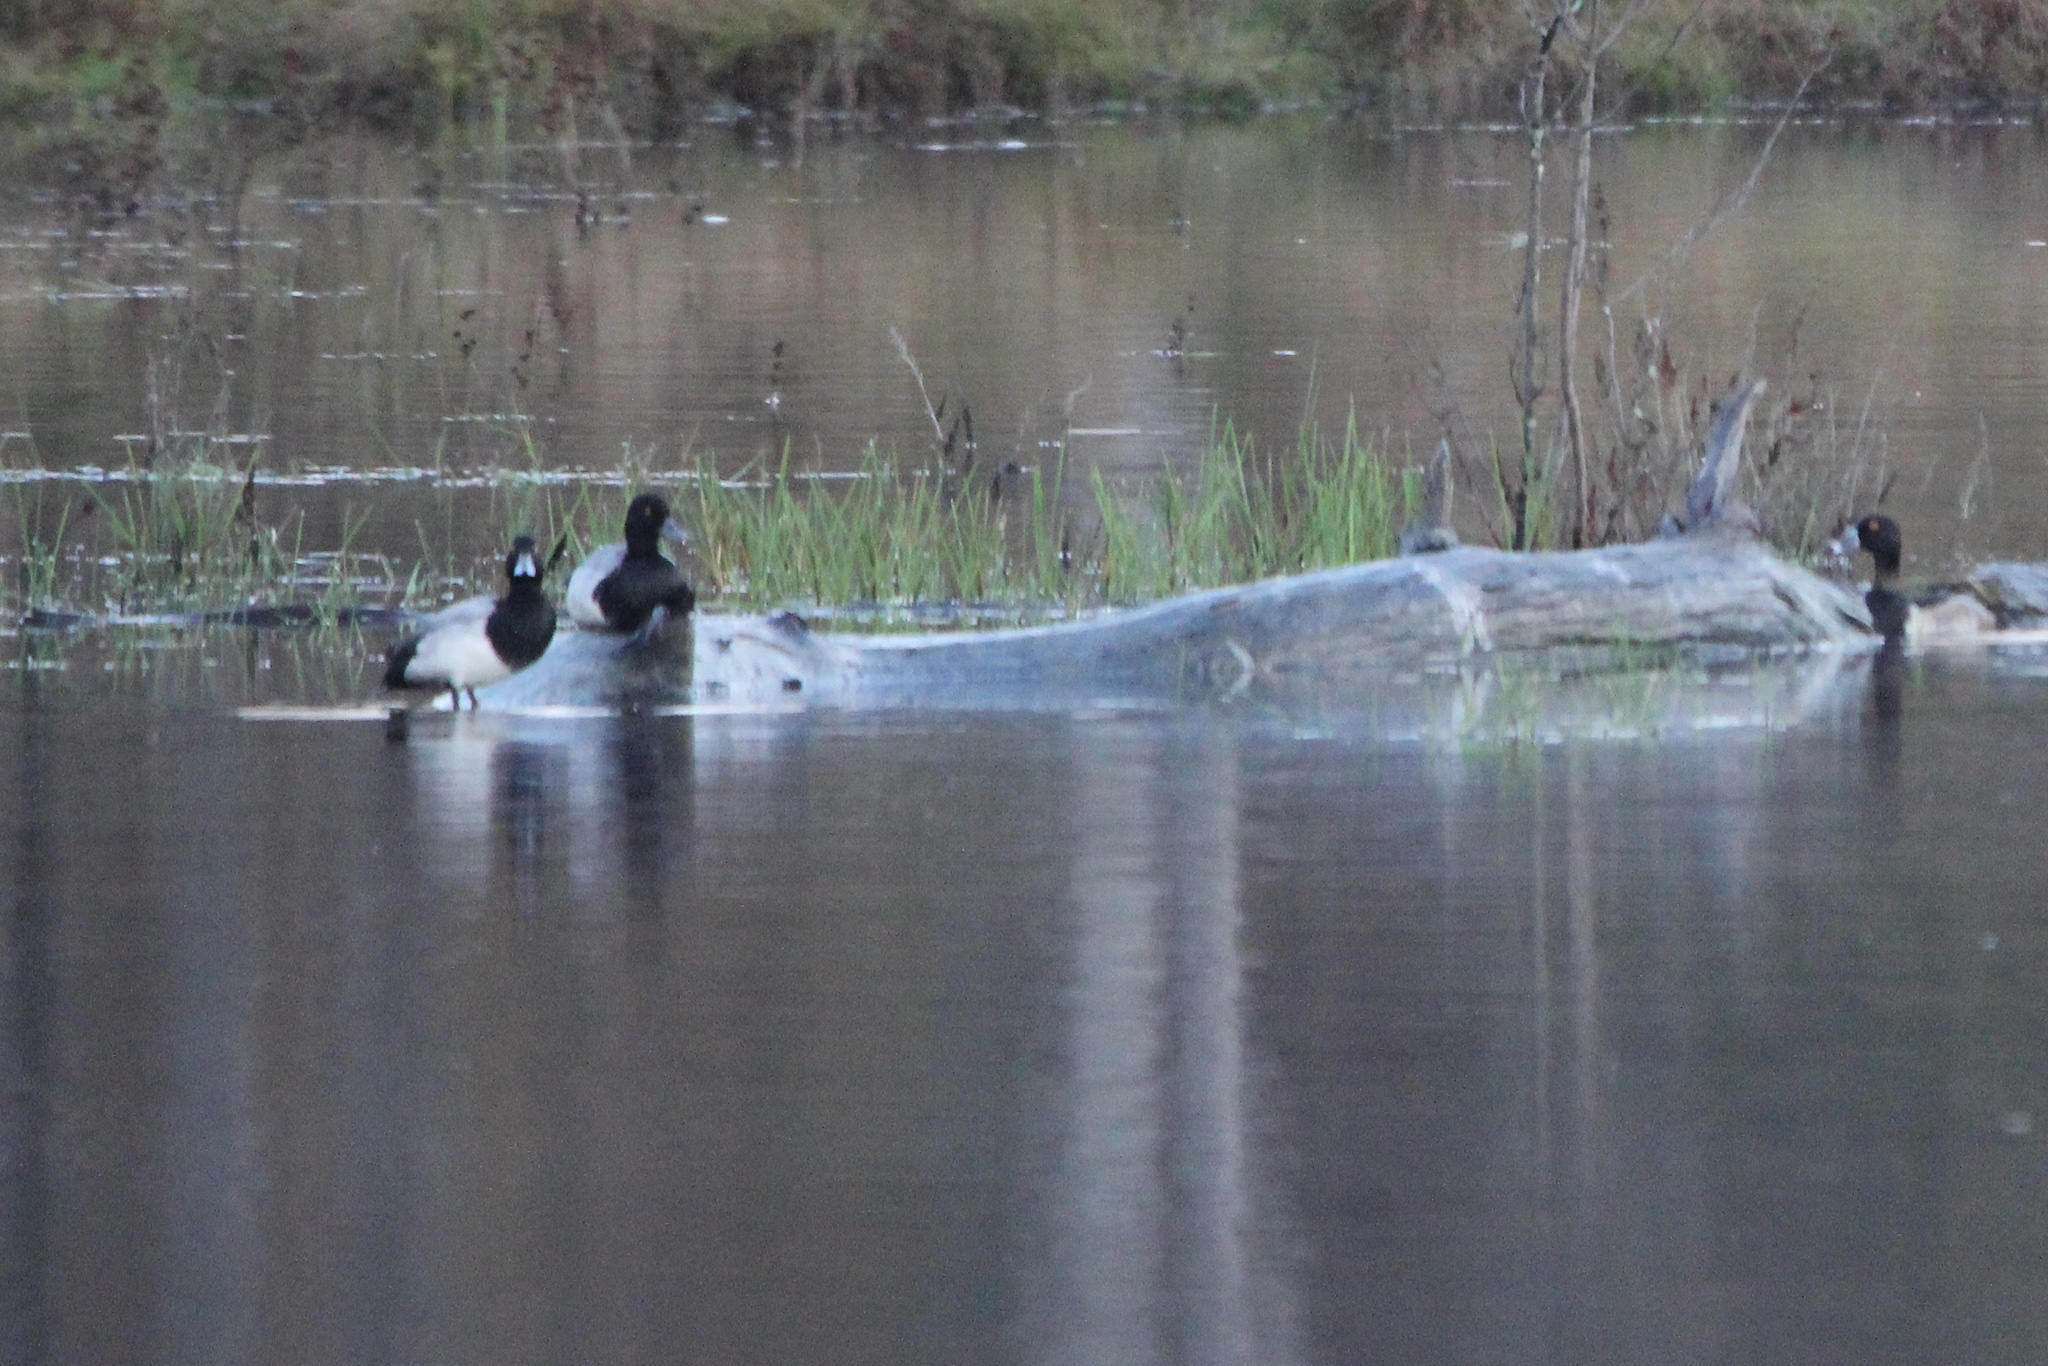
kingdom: Animalia
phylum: Chordata
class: Aves
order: Anseriformes
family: Anatidae
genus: Aythya
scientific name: Aythya affinis
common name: Lesser scaup
